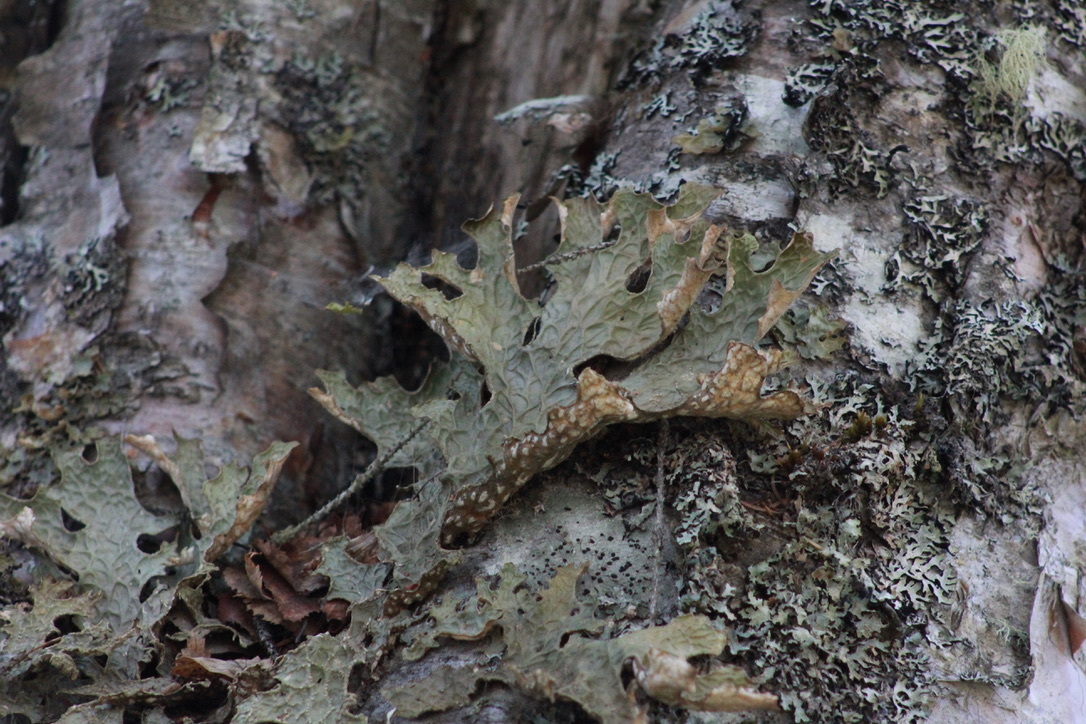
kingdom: Fungi
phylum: Ascomycota
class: Lecanoromycetes
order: Peltigerales
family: Lobariaceae
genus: Lobaria
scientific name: Lobaria pulmonaria
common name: Lungwort
